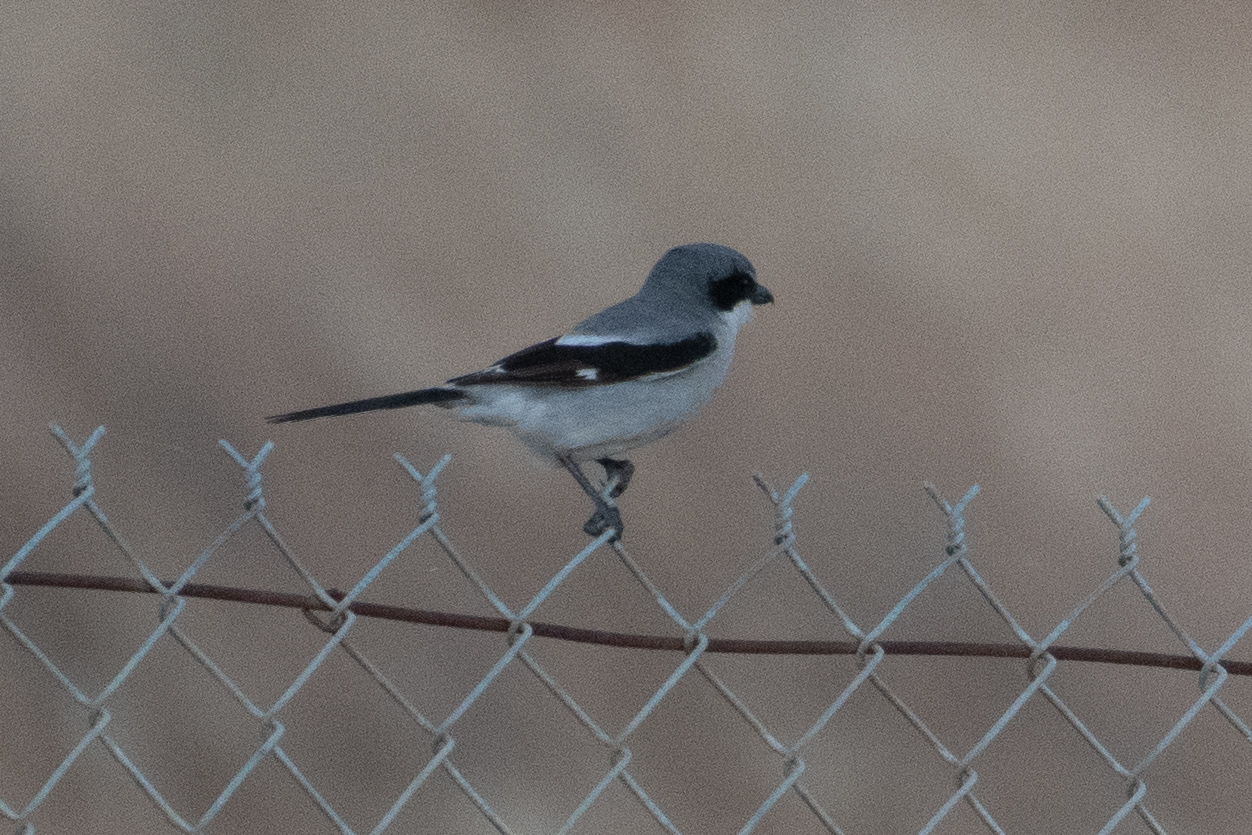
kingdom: Animalia
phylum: Chordata
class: Aves
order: Passeriformes
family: Laniidae
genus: Lanius
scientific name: Lanius ludovicianus
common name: Loggerhead shrike
